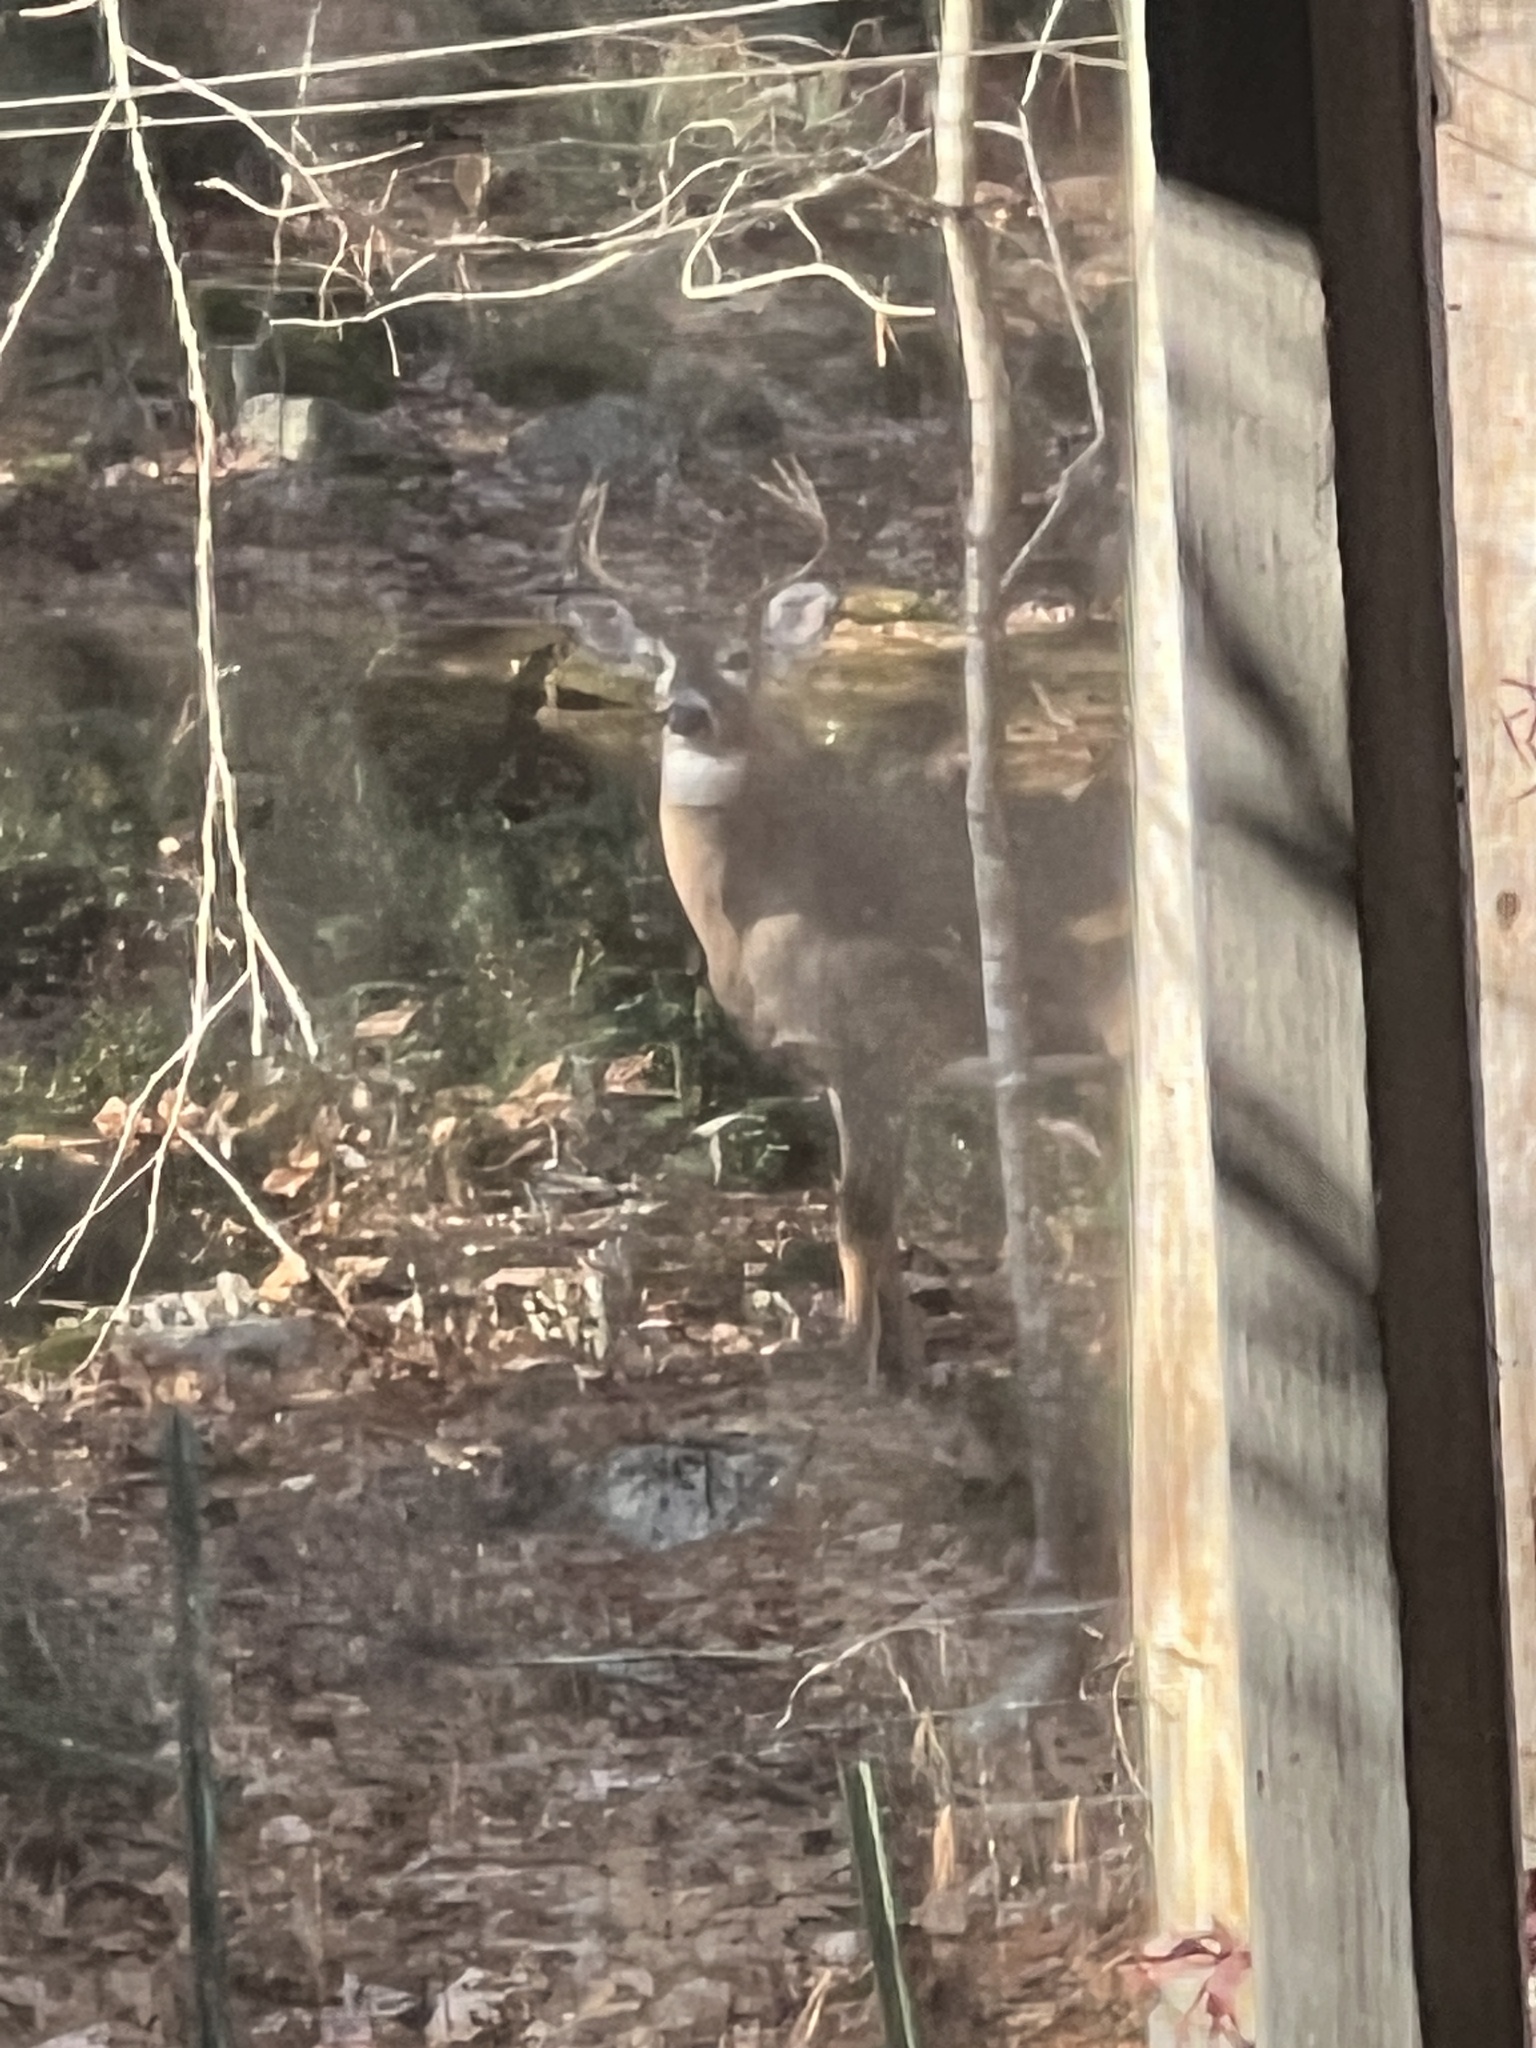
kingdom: Animalia
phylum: Chordata
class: Mammalia
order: Artiodactyla
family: Cervidae
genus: Odocoileus
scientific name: Odocoileus virginianus
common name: White-tailed deer
